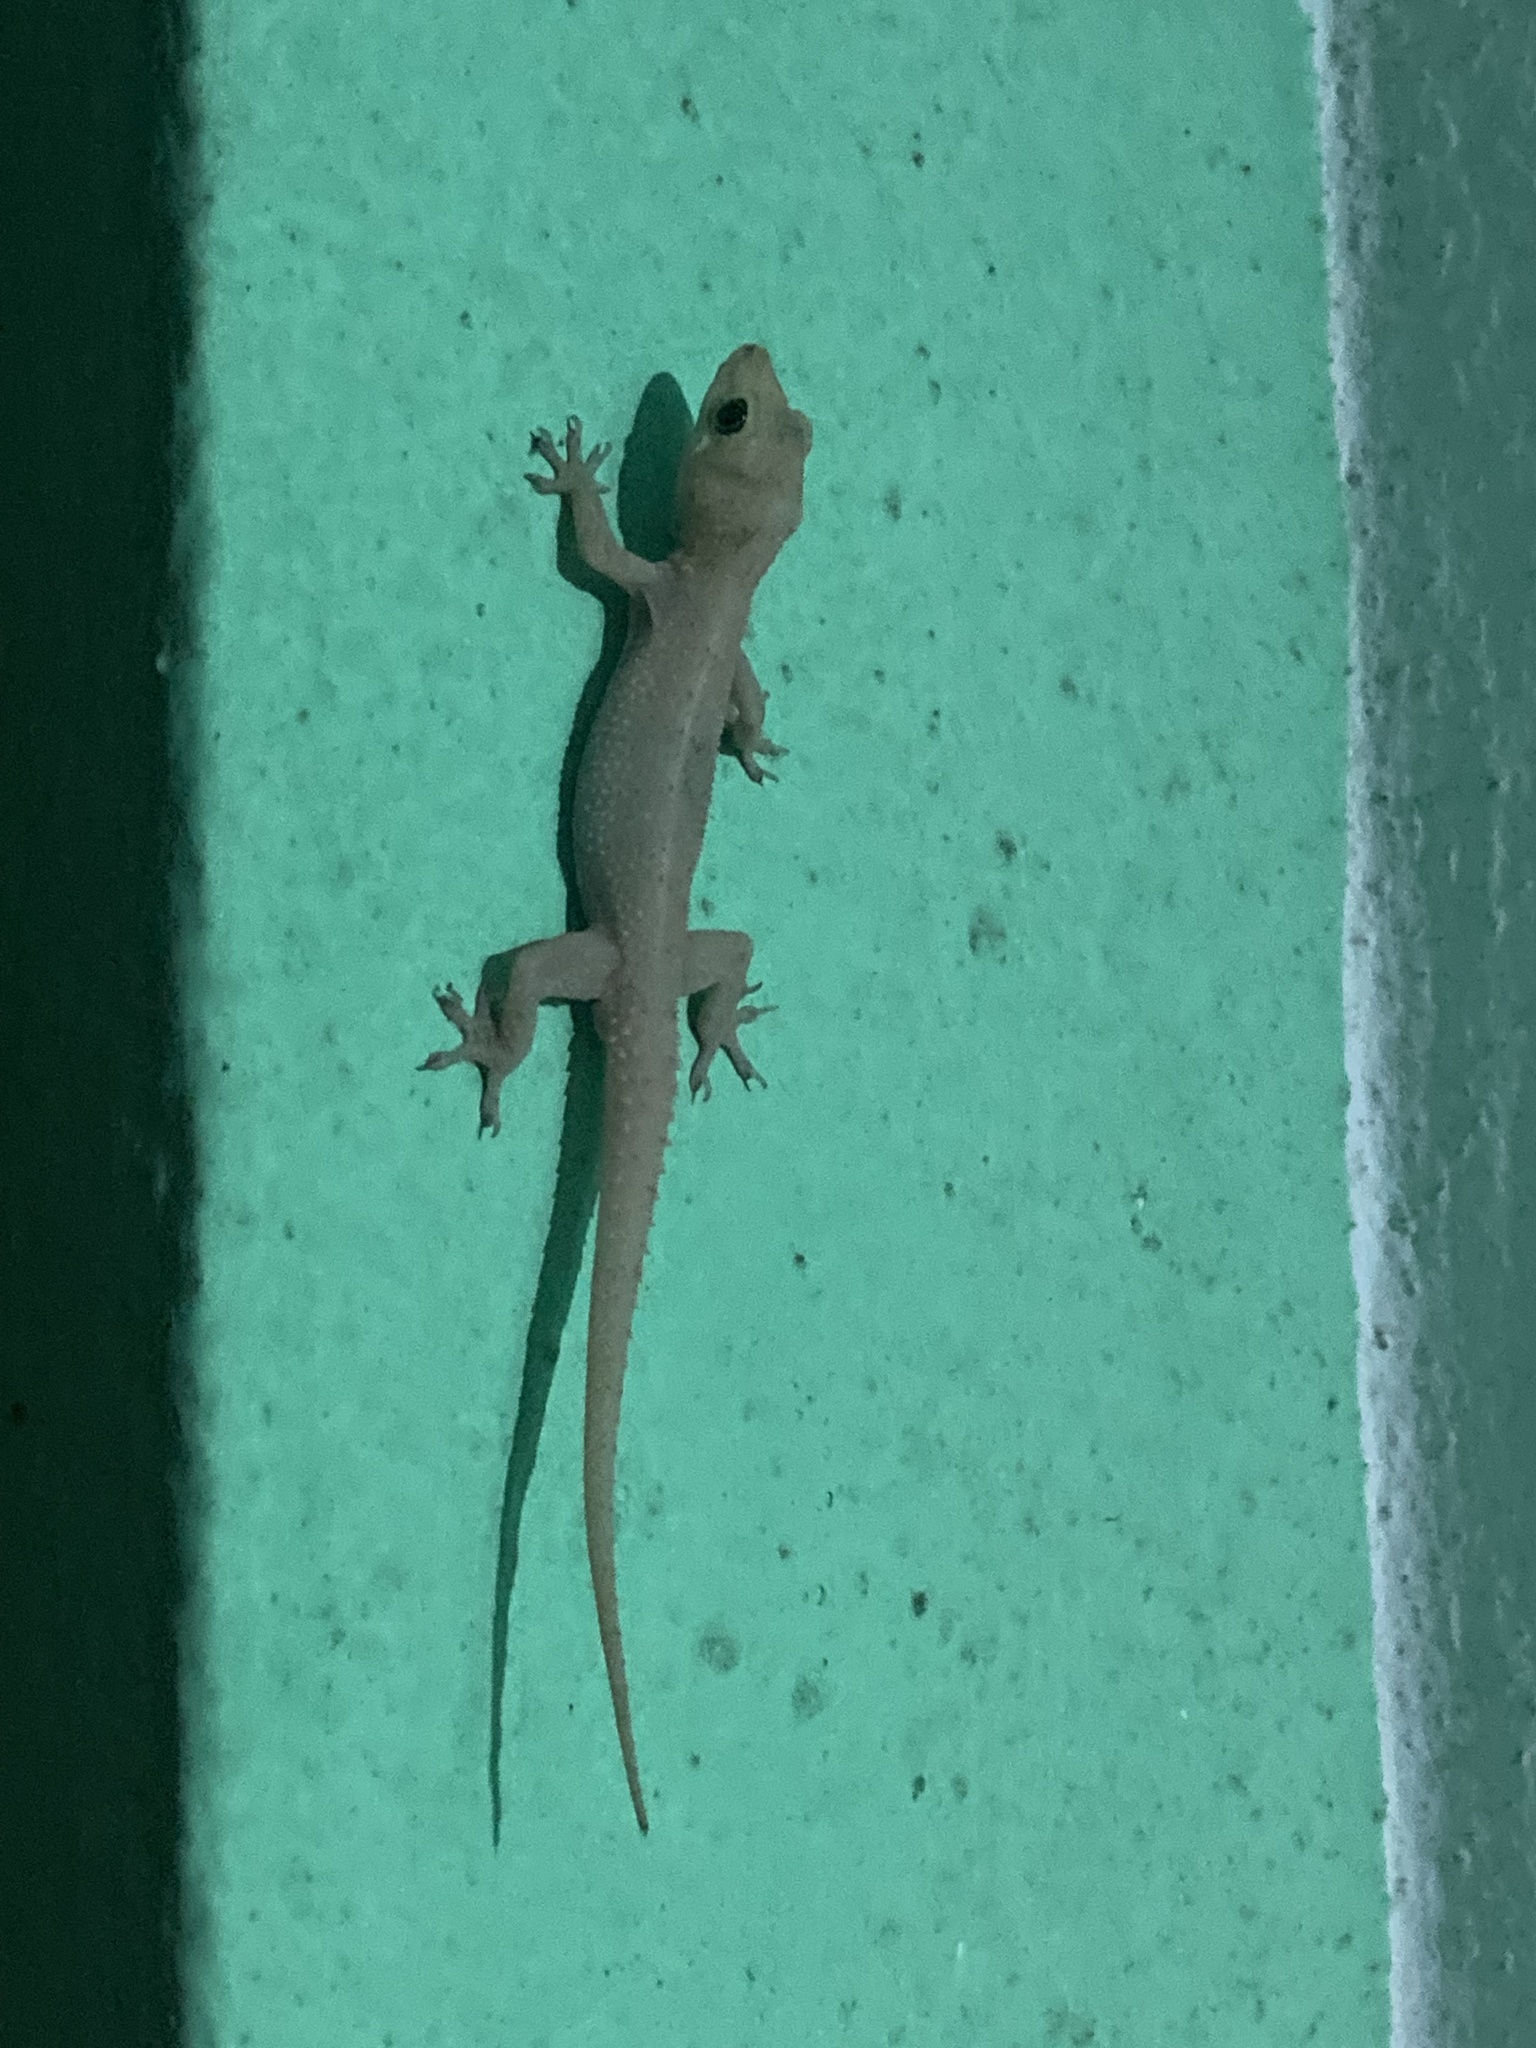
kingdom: Animalia
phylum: Chordata
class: Squamata
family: Gekkonidae
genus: Hemidactylus
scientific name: Hemidactylus platyurus
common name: Flat-tailed house gecko
